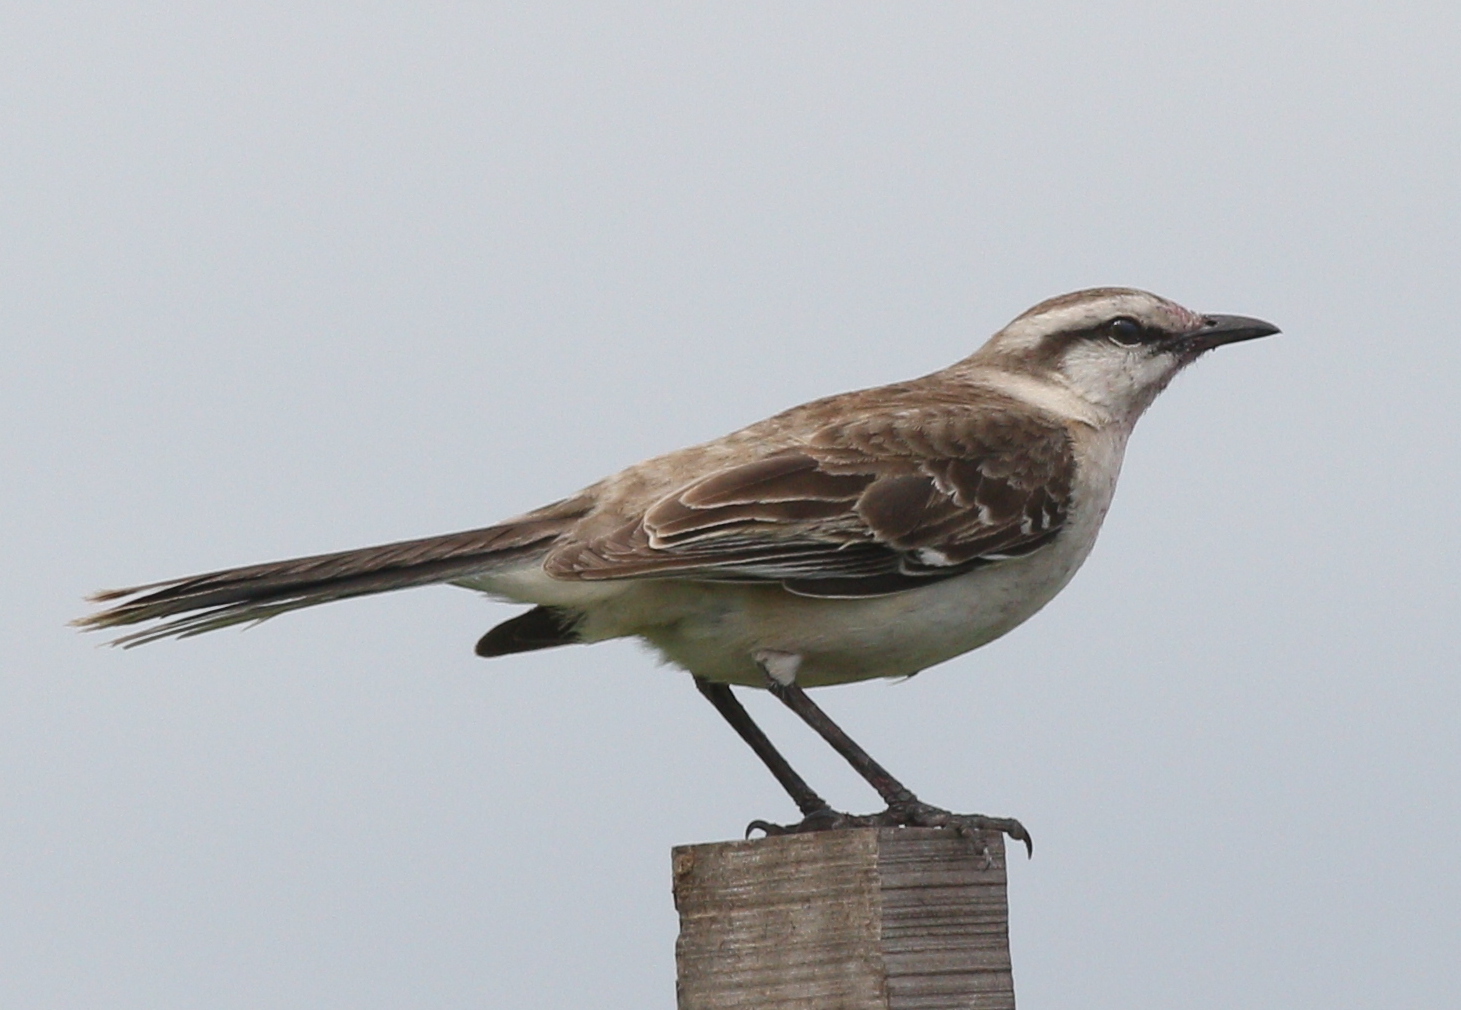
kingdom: Animalia
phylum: Chordata
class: Aves
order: Passeriformes
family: Mimidae
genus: Mimus
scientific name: Mimus saturninus
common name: Chalk-browed mockingbird
